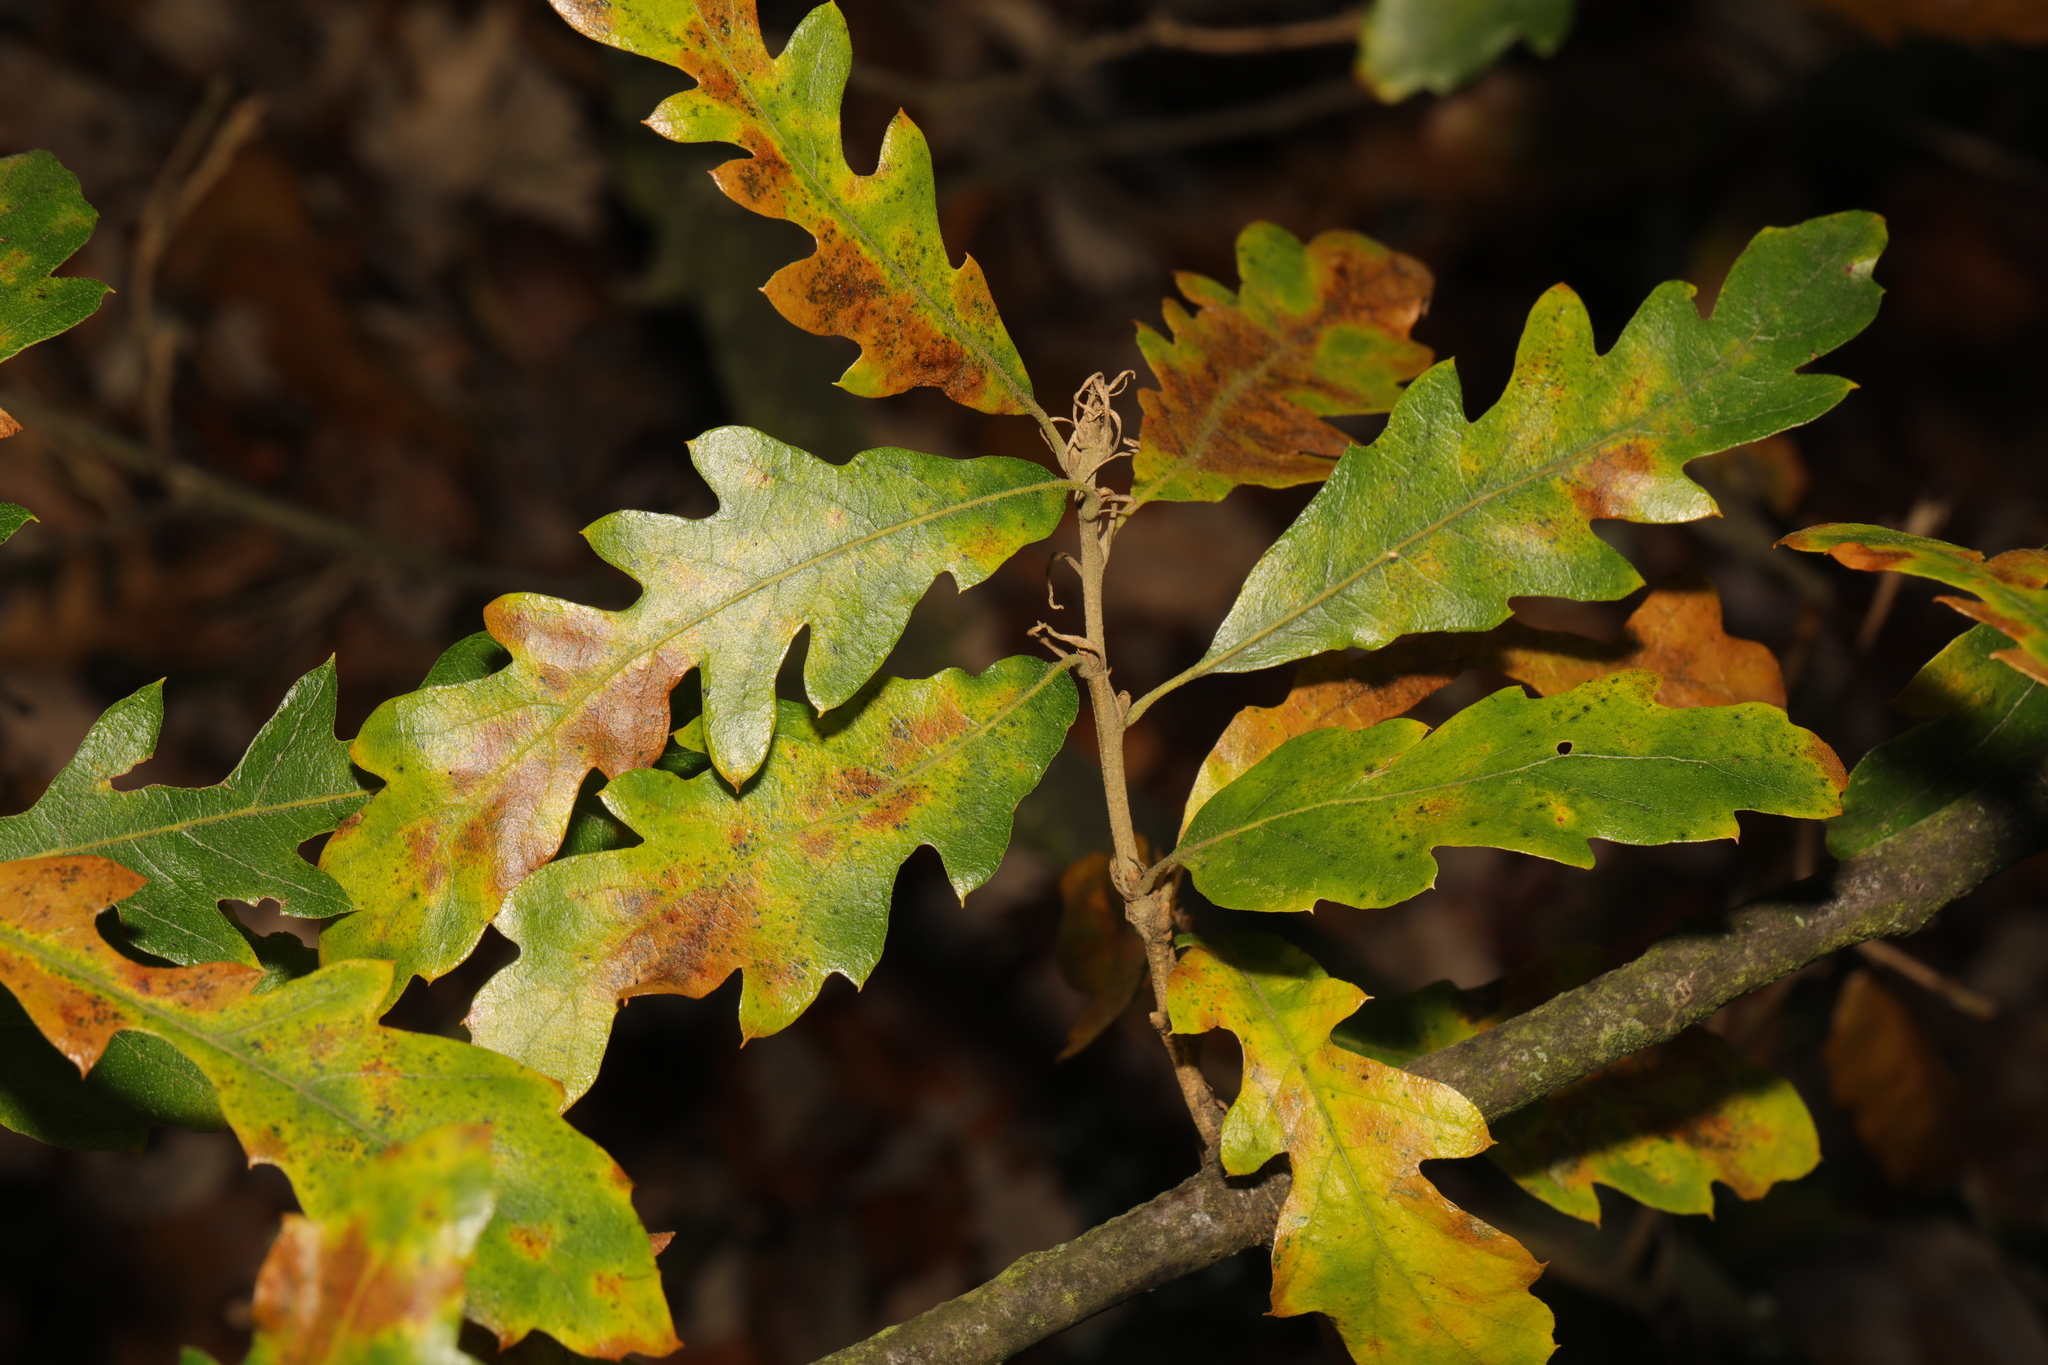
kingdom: Plantae
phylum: Tracheophyta
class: Magnoliopsida
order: Fagales
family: Fagaceae
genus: Quercus
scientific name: Quercus cerris
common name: Turkey oak
